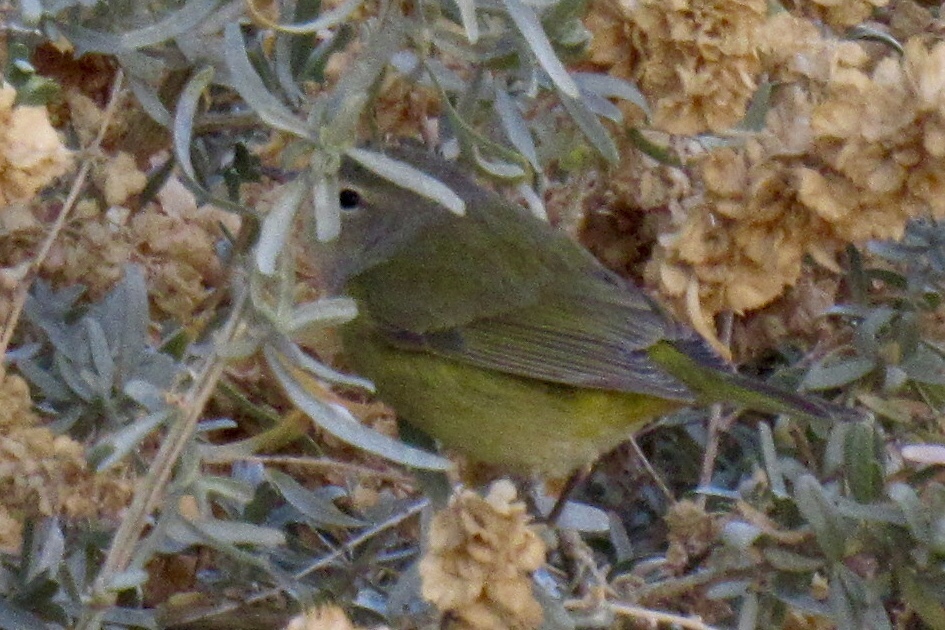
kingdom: Animalia
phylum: Chordata
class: Aves
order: Passeriformes
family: Parulidae
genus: Leiothlypis
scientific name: Leiothlypis celata
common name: Orange-crowned warbler
